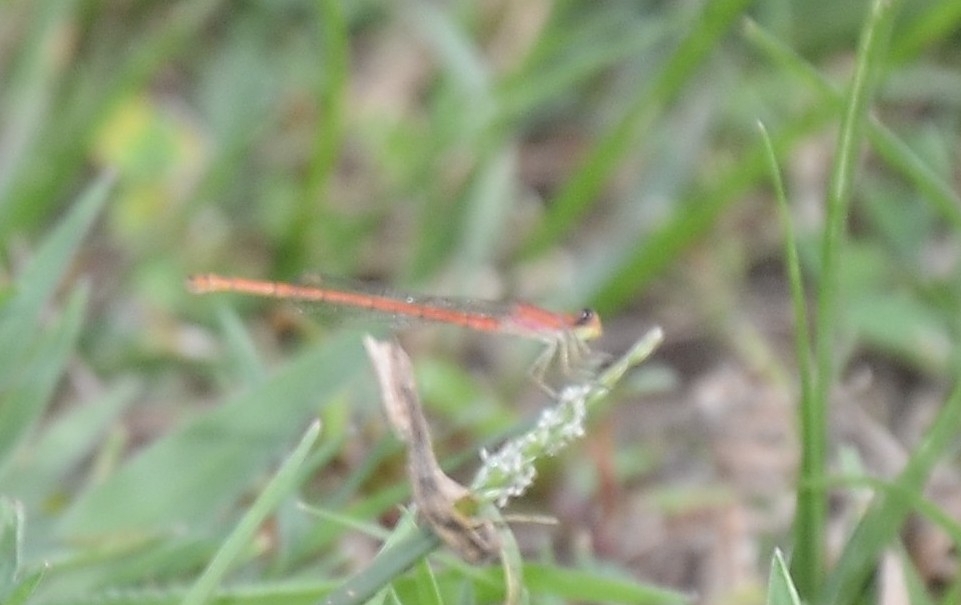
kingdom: Animalia
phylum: Arthropoda
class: Insecta
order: Odonata
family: Coenagrionidae
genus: Agriocnemis
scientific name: Agriocnemis keralensis
